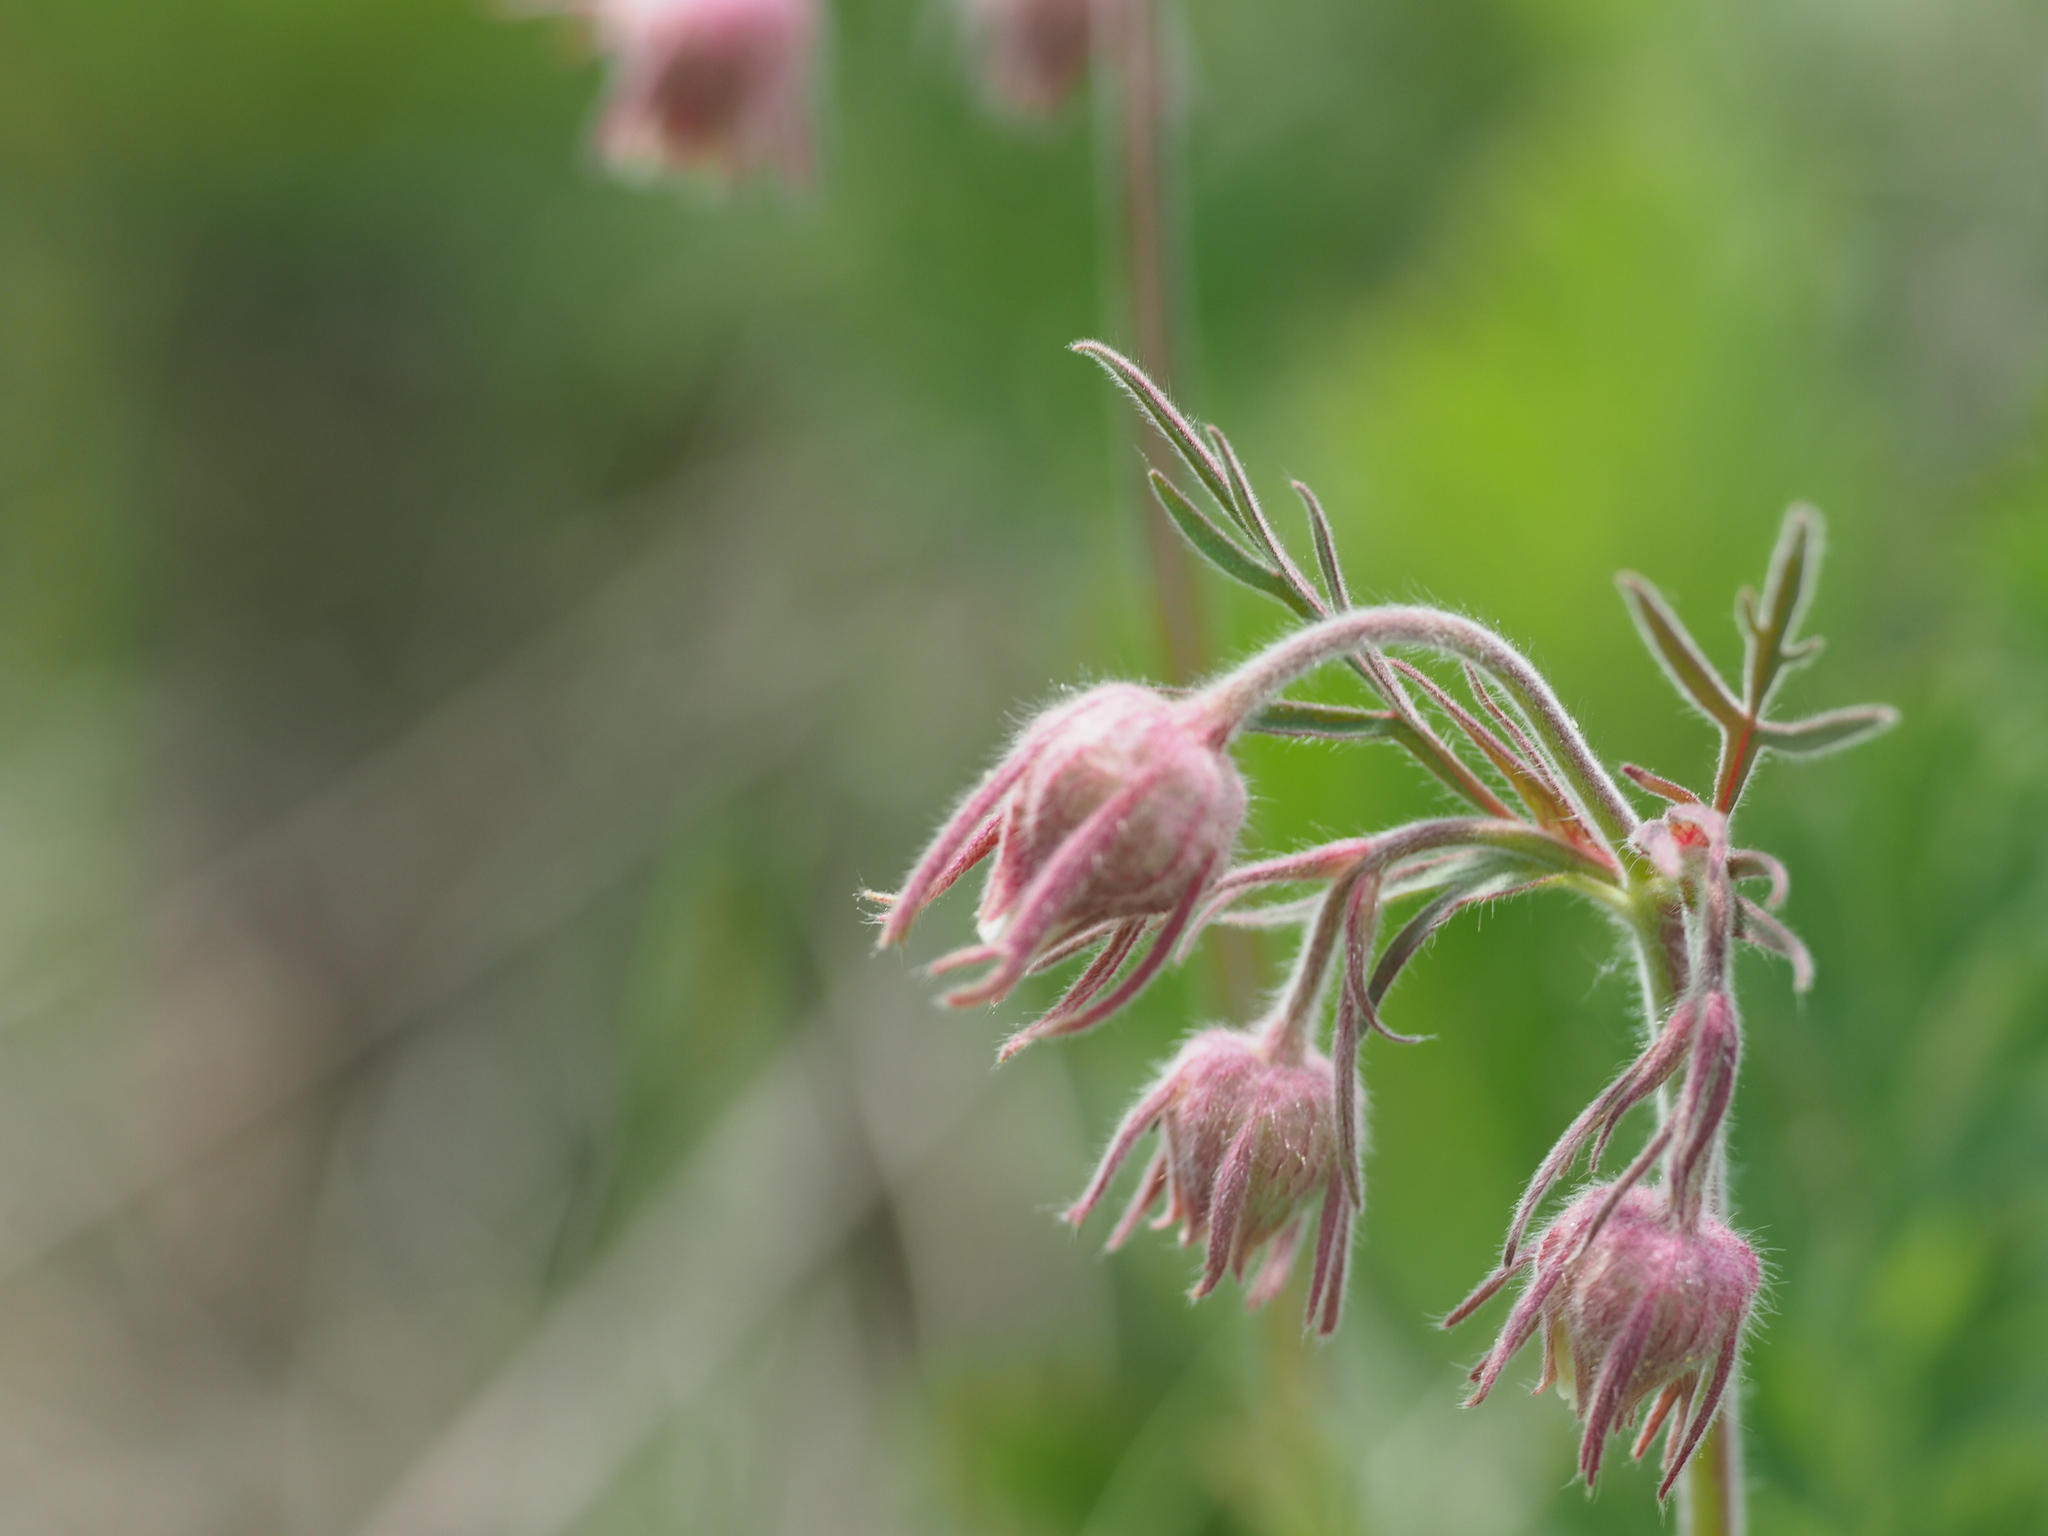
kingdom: Plantae
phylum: Tracheophyta
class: Magnoliopsida
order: Rosales
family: Rosaceae
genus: Geum
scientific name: Geum triflorum
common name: Old man's whiskers
